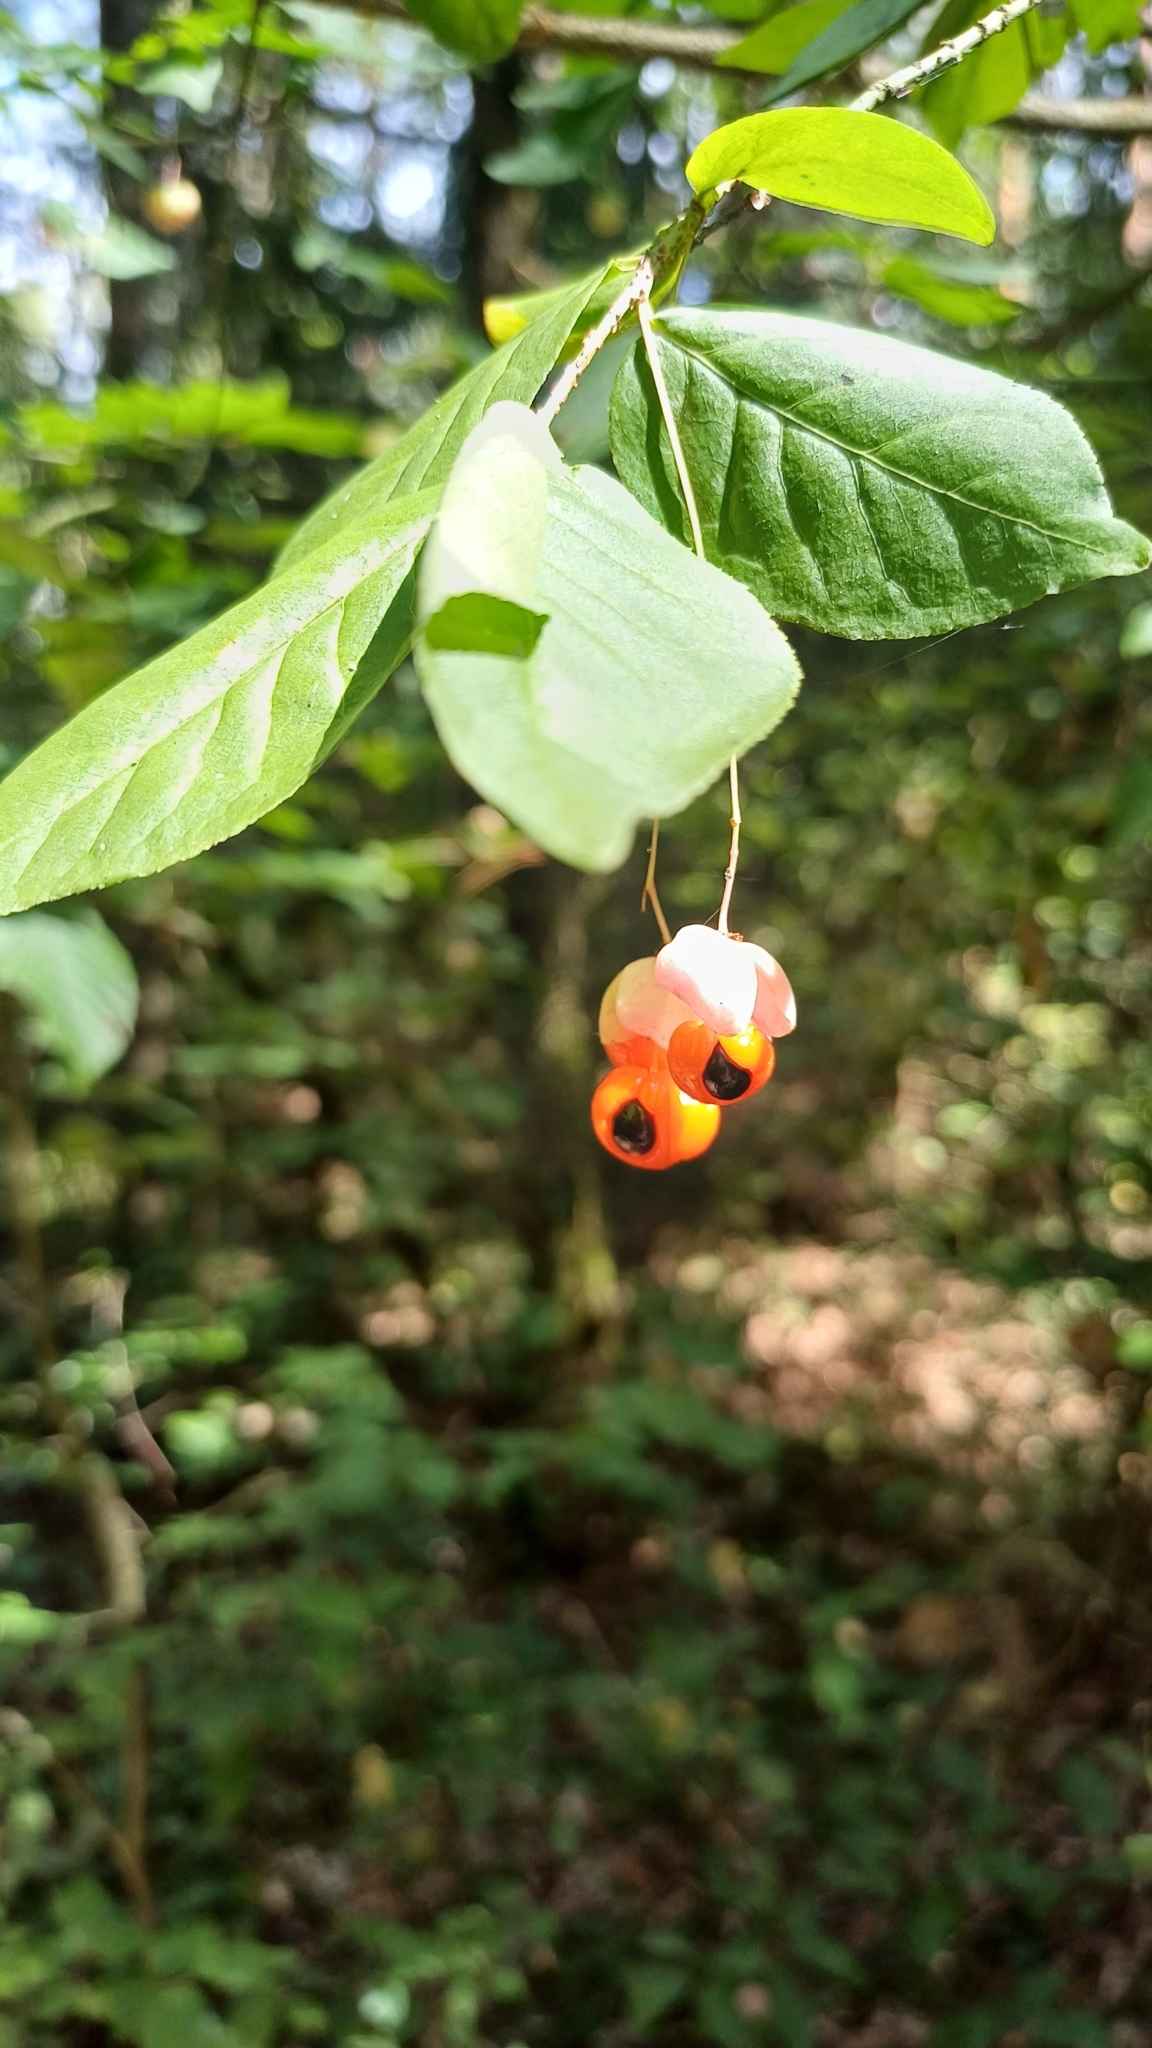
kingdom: Plantae
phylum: Tracheophyta
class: Magnoliopsida
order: Celastrales
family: Celastraceae
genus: Euonymus
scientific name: Euonymus verrucosus
